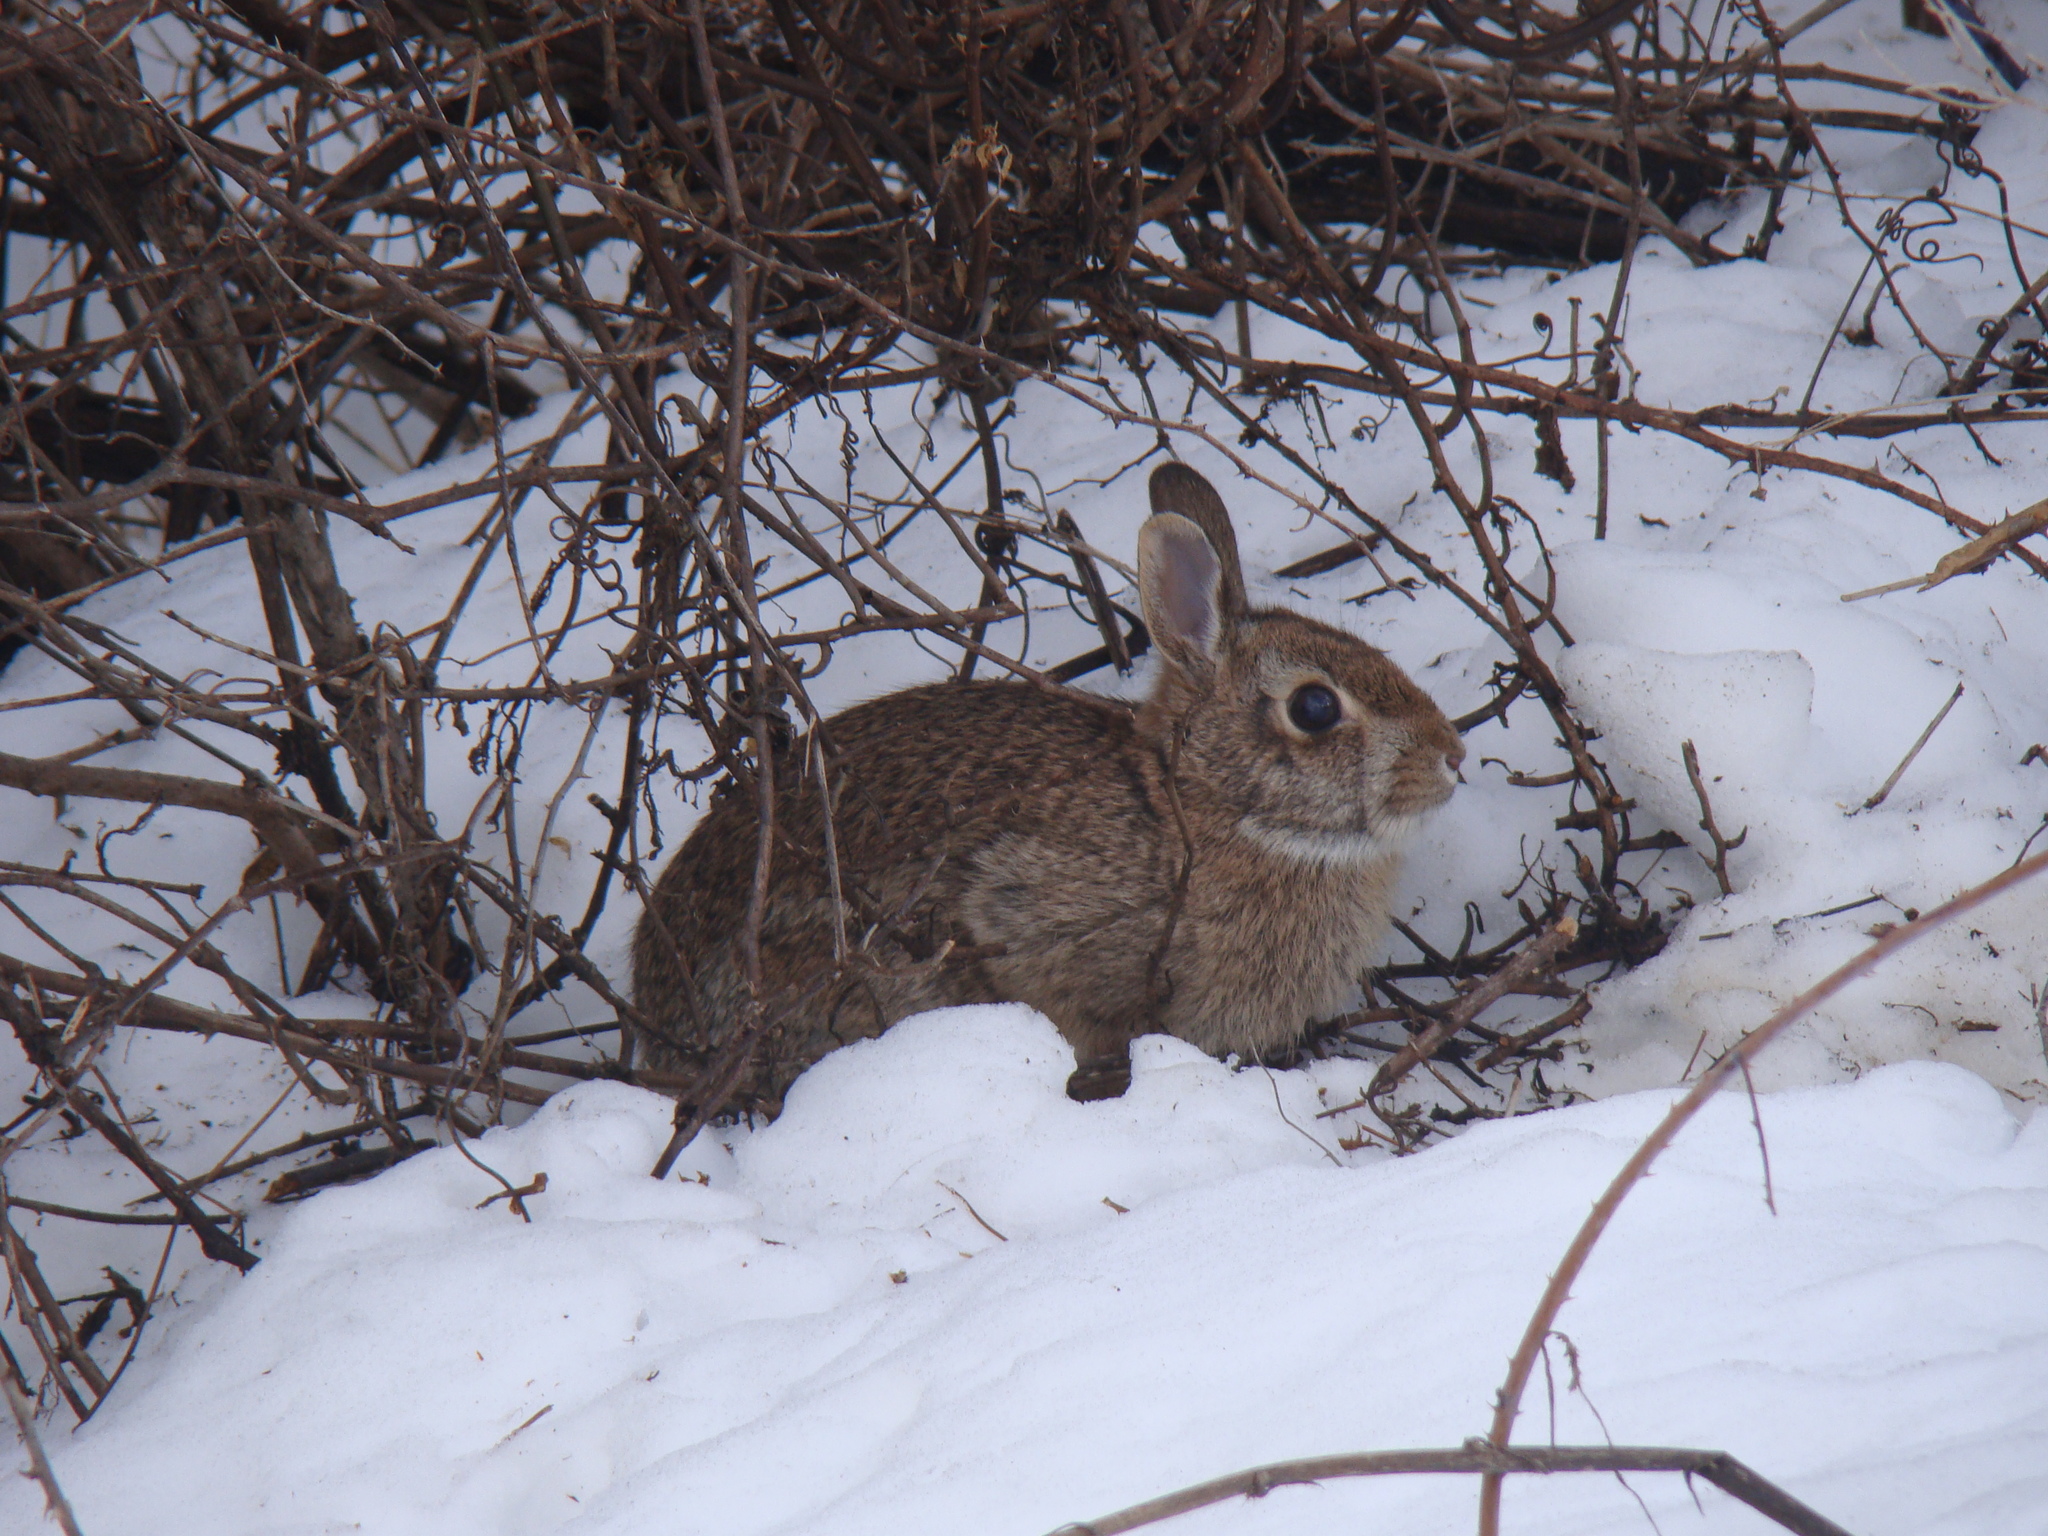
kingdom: Animalia
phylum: Chordata
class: Mammalia
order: Lagomorpha
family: Leporidae
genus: Sylvilagus
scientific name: Sylvilagus floridanus
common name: Eastern cottontail
